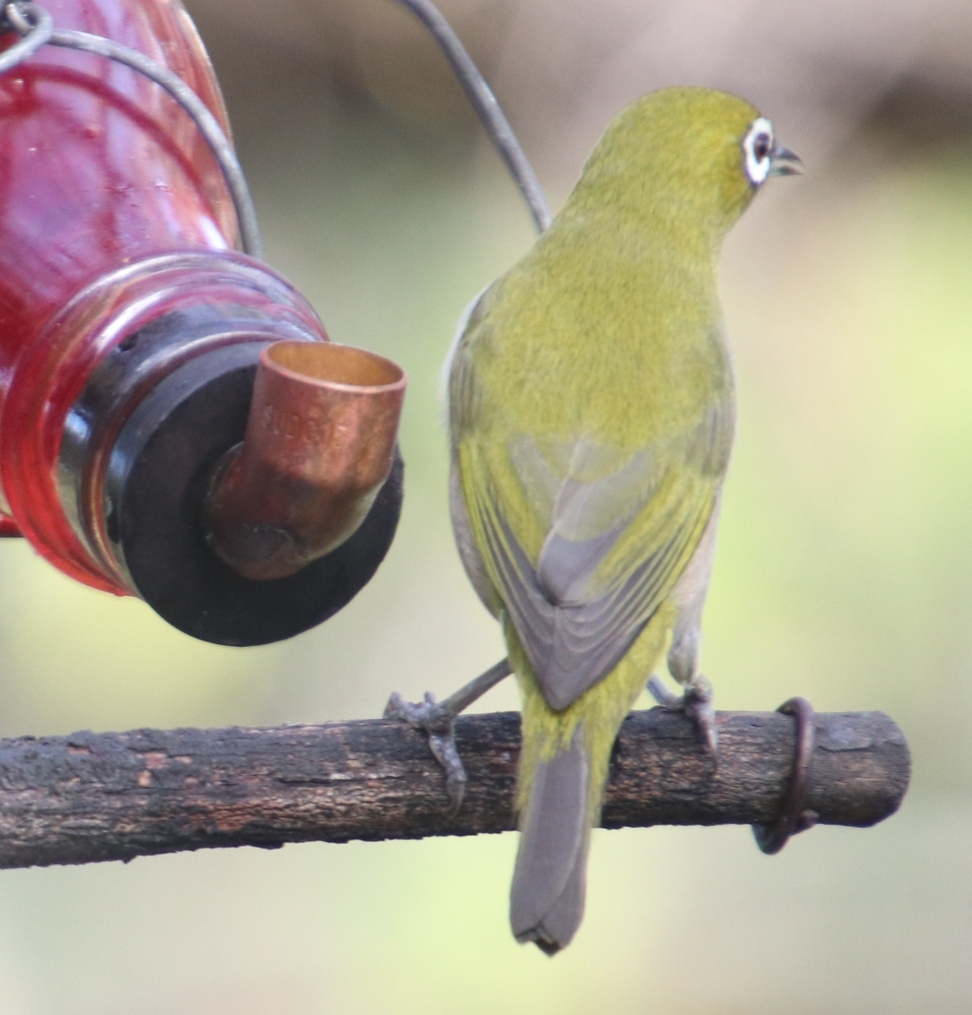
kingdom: Animalia
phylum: Chordata
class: Aves
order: Passeriformes
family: Zosteropidae
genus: Zosterops
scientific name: Zosterops virens
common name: Cape white-eye
